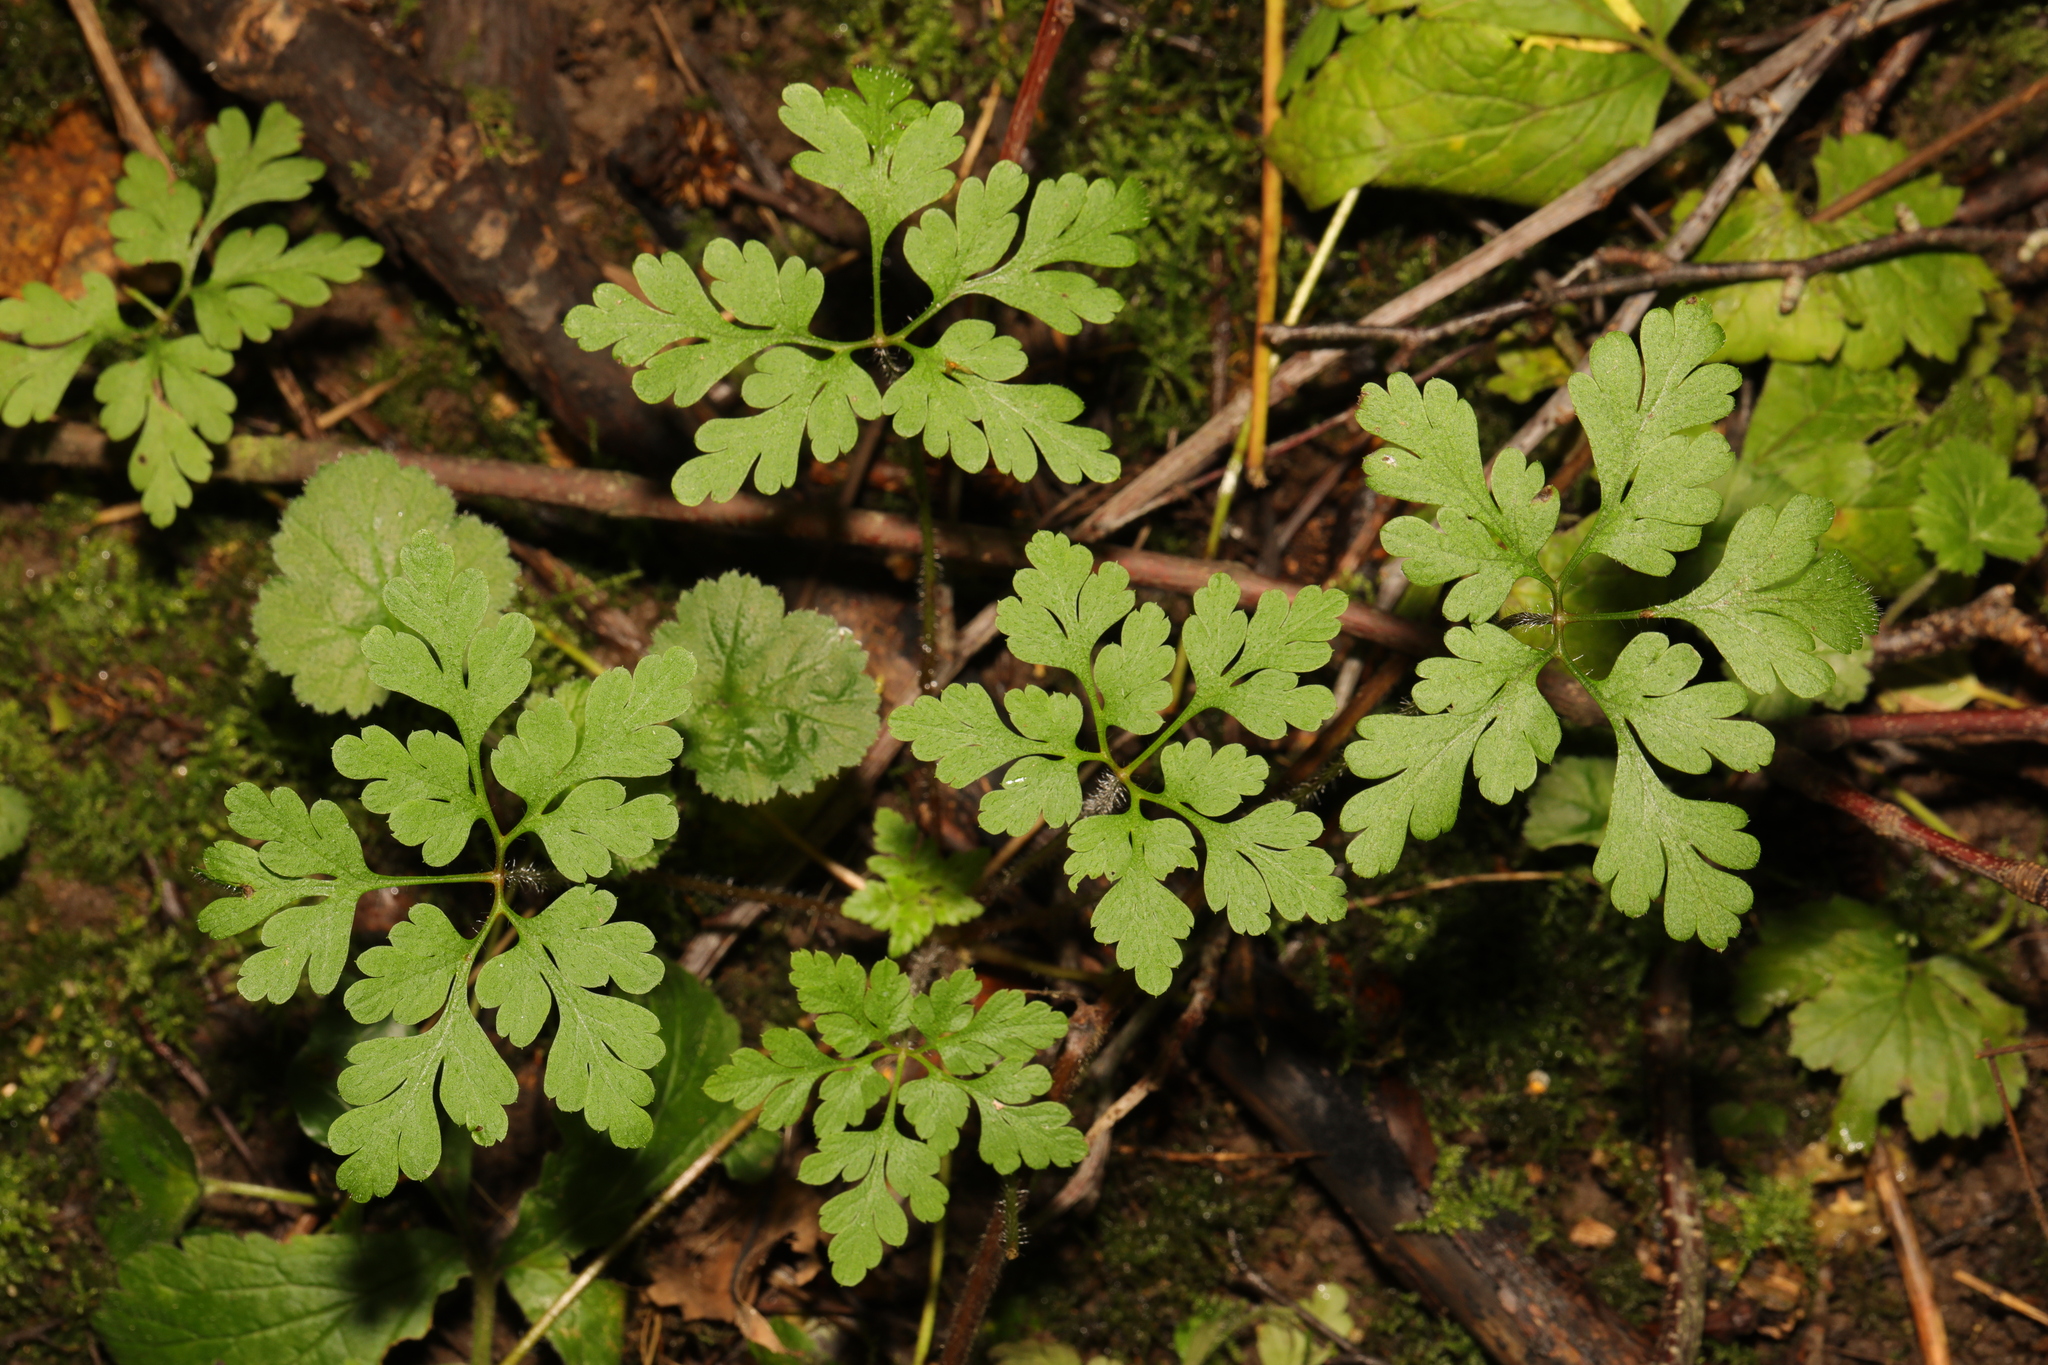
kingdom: Plantae
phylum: Tracheophyta
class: Magnoliopsida
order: Geraniales
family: Geraniaceae
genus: Geranium
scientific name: Geranium robertianum
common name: Herb-robert
